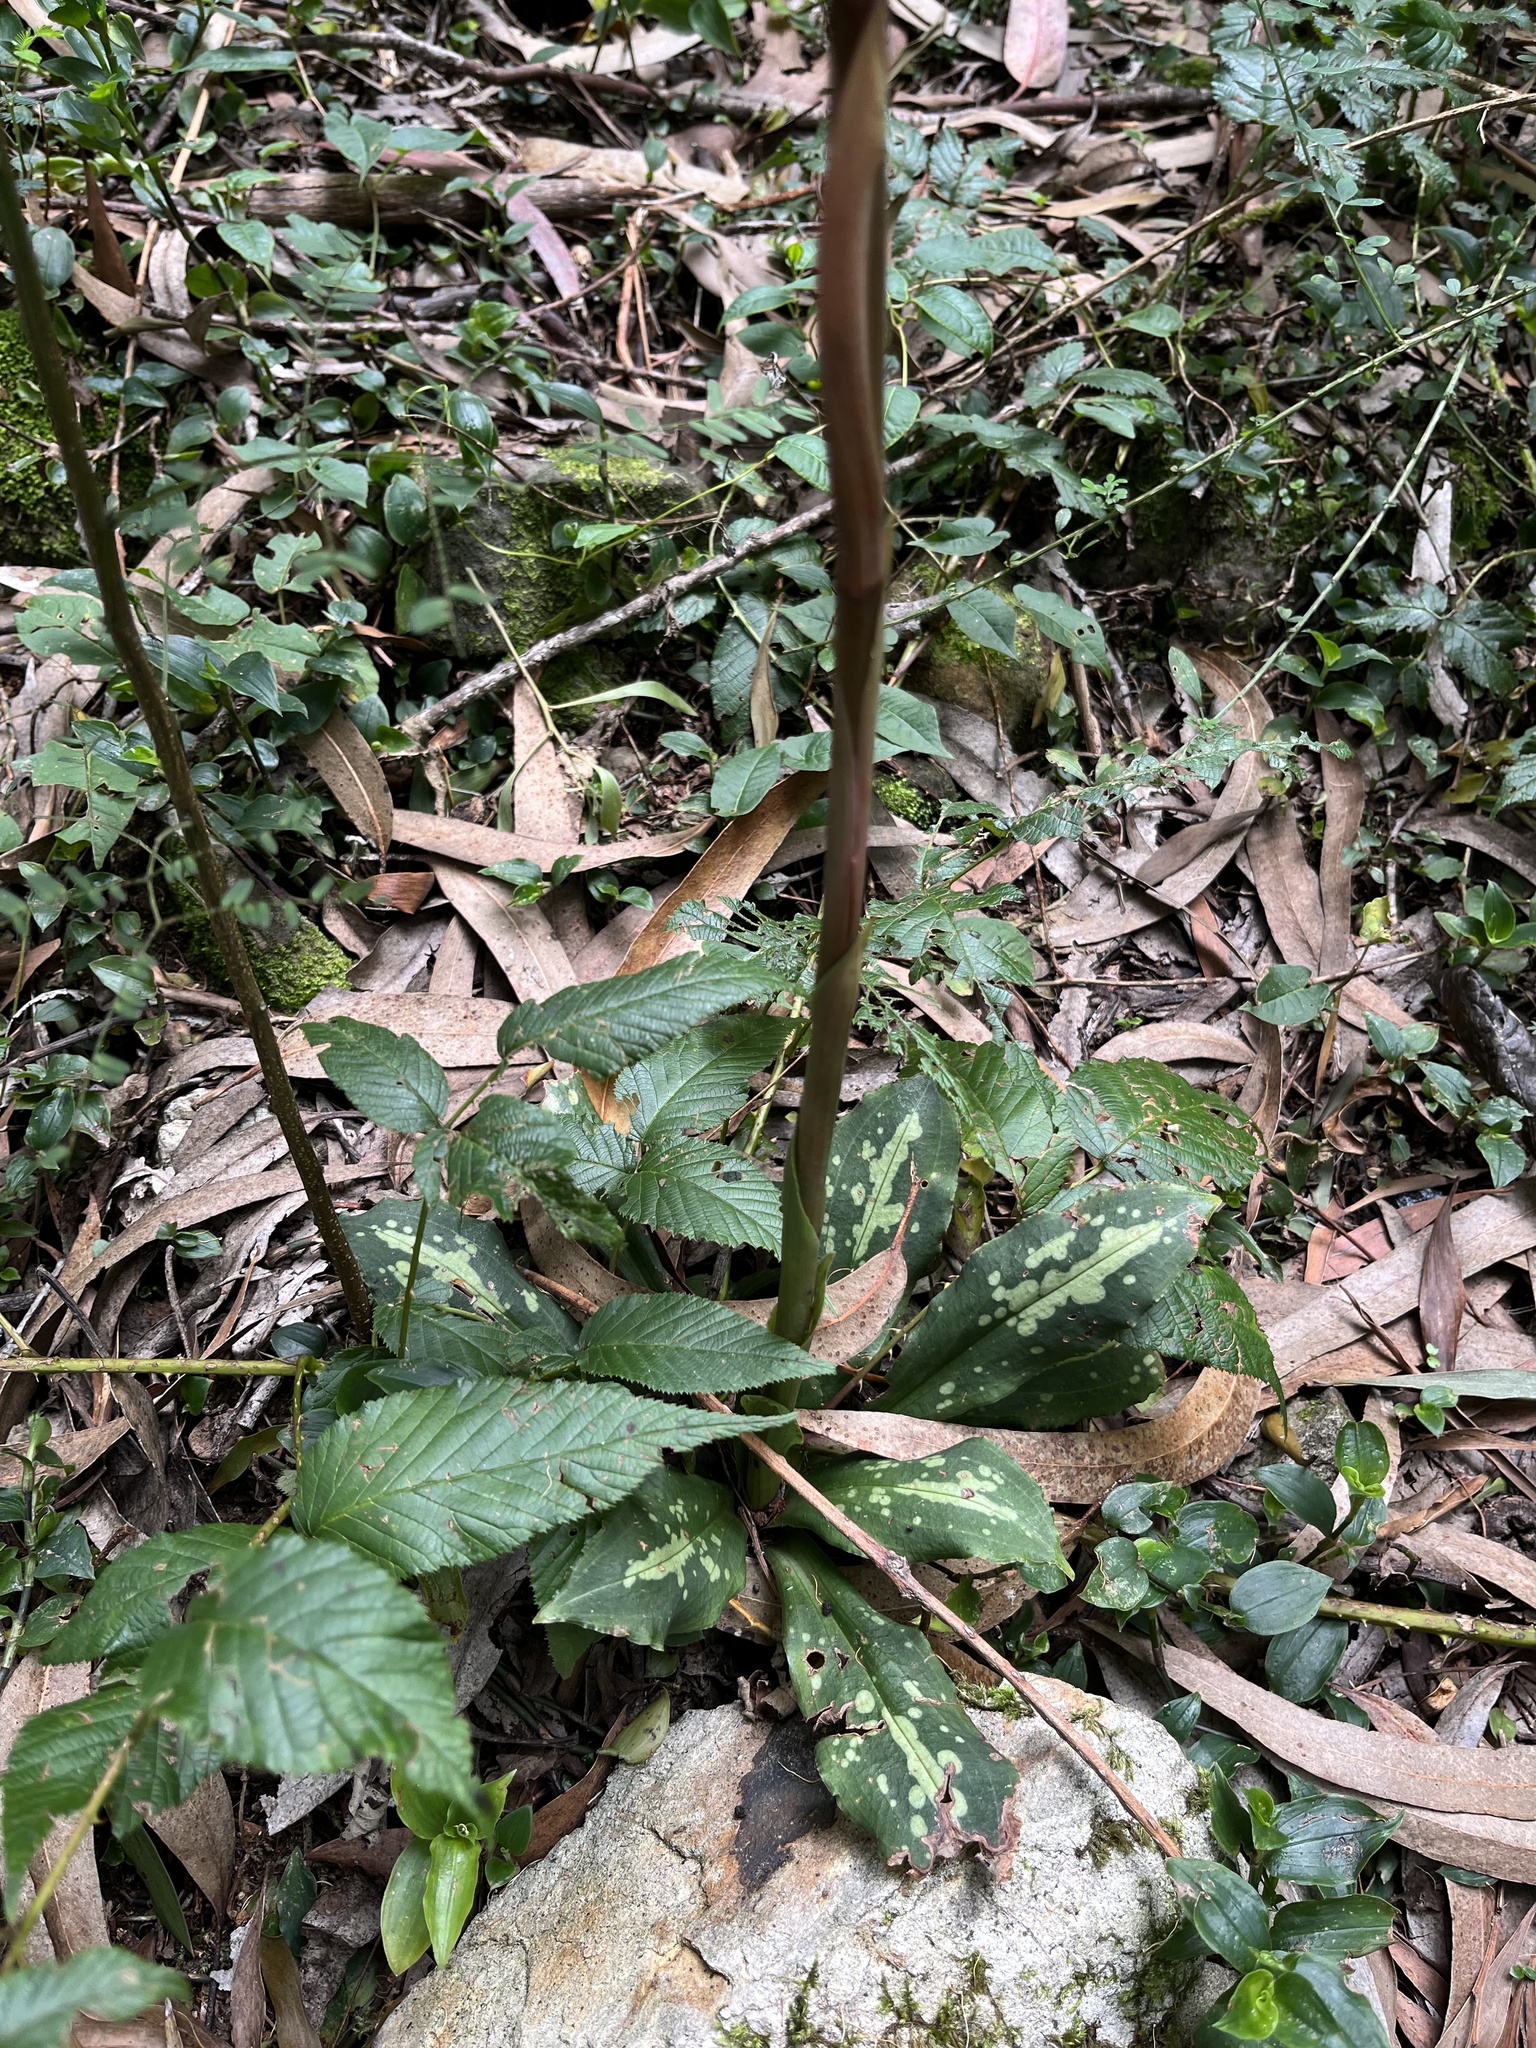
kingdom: Plantae
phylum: Tracheophyta
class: Liliopsida
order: Asparagales
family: Orchidaceae
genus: Stenorrhynchos
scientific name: Stenorrhynchos albidomaculatum
